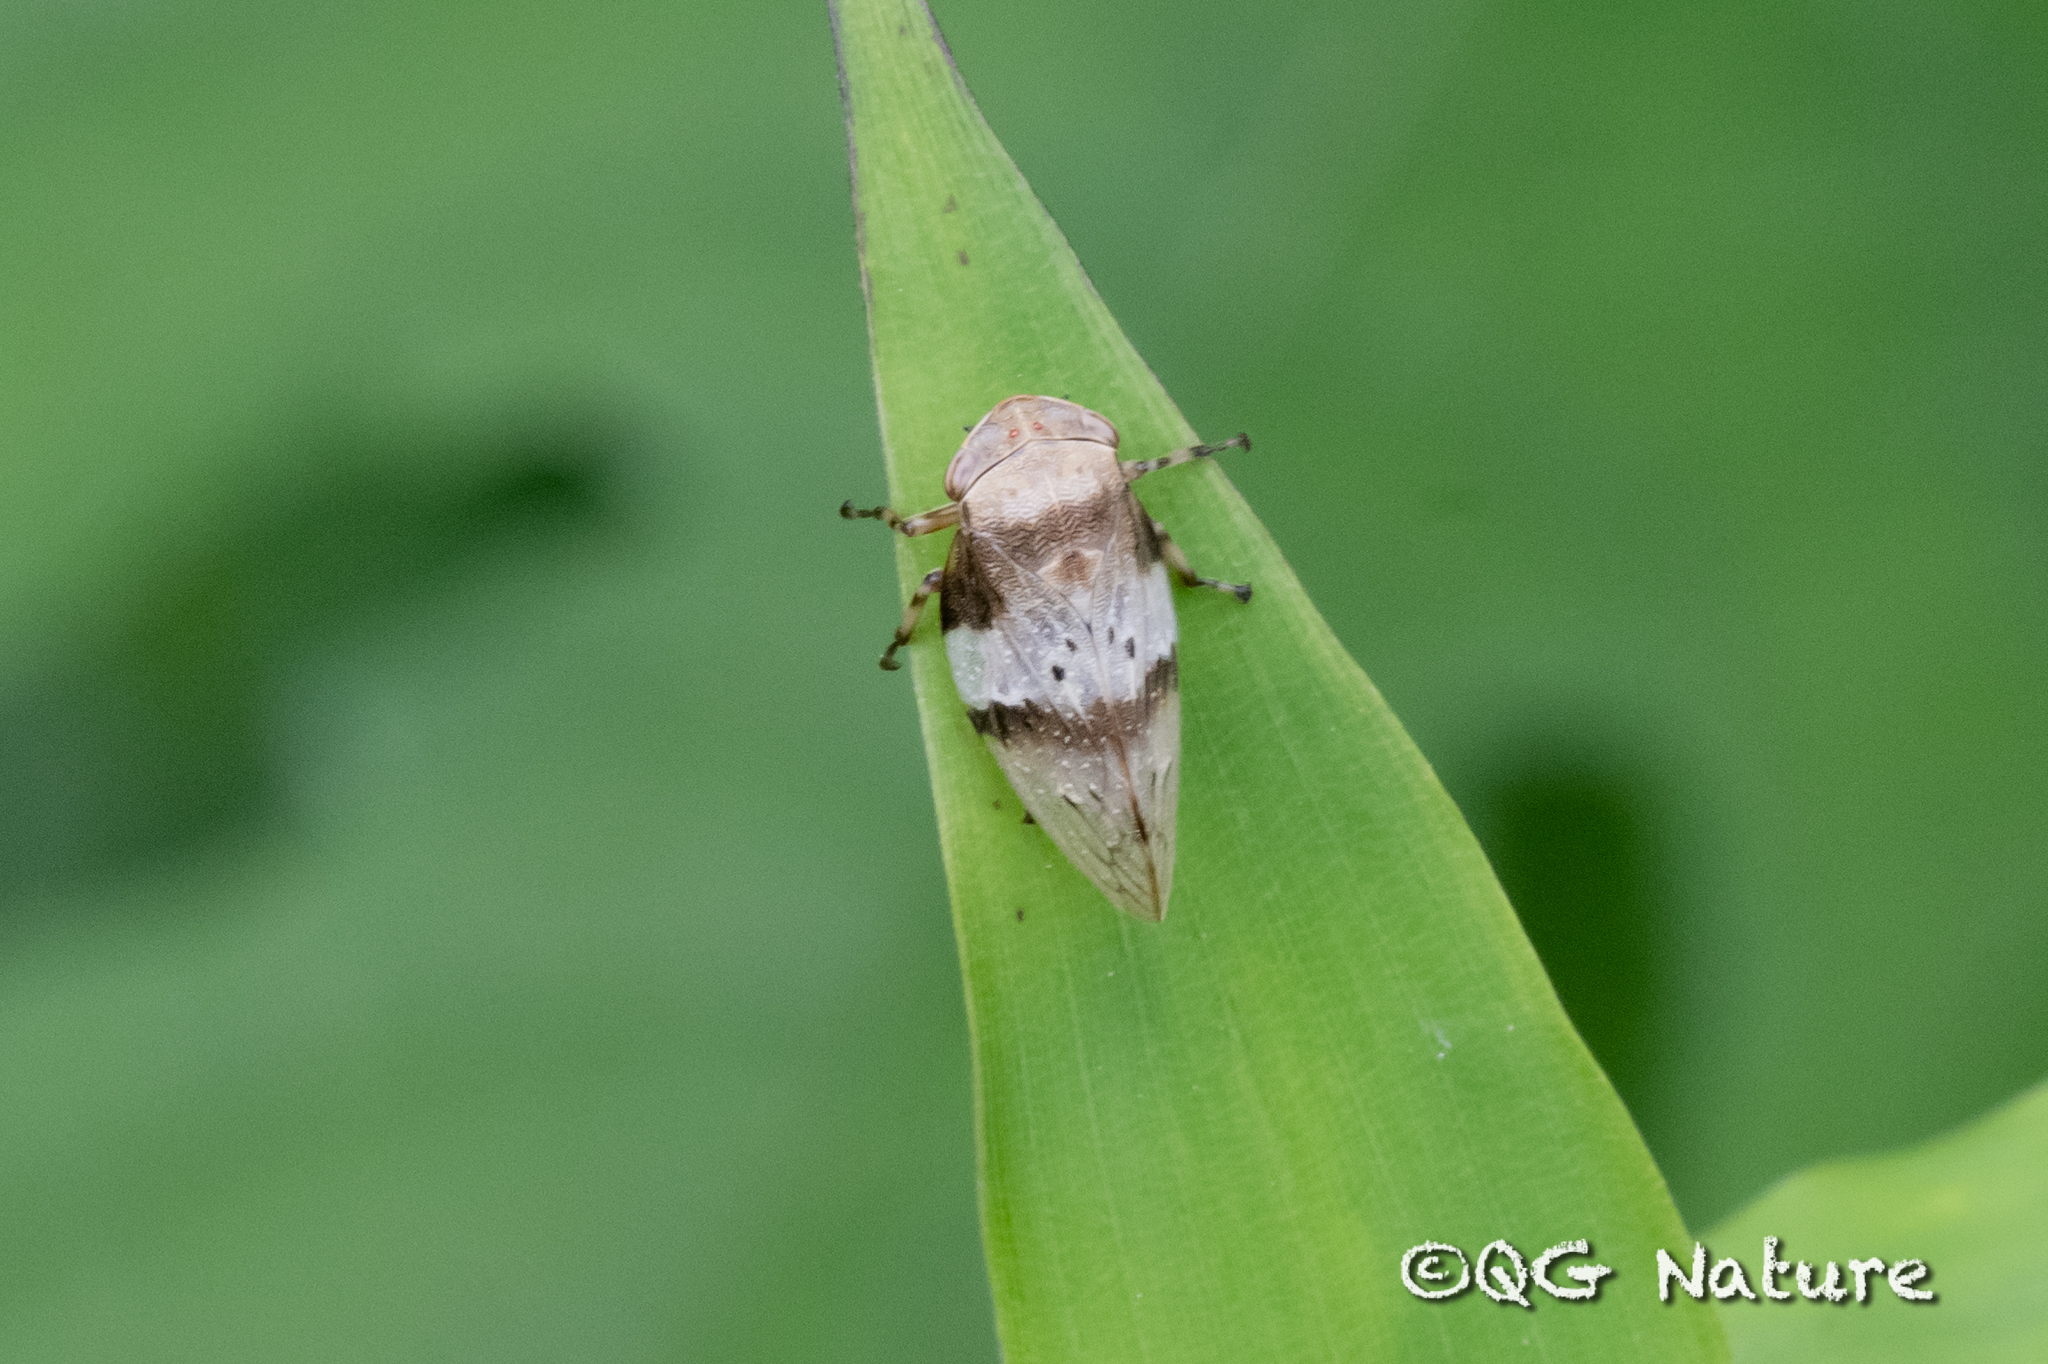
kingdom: Animalia
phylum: Arthropoda
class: Insecta
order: Hemiptera
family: Aphrophoridae
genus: Aphrophora
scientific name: Aphrophora horizontalis
